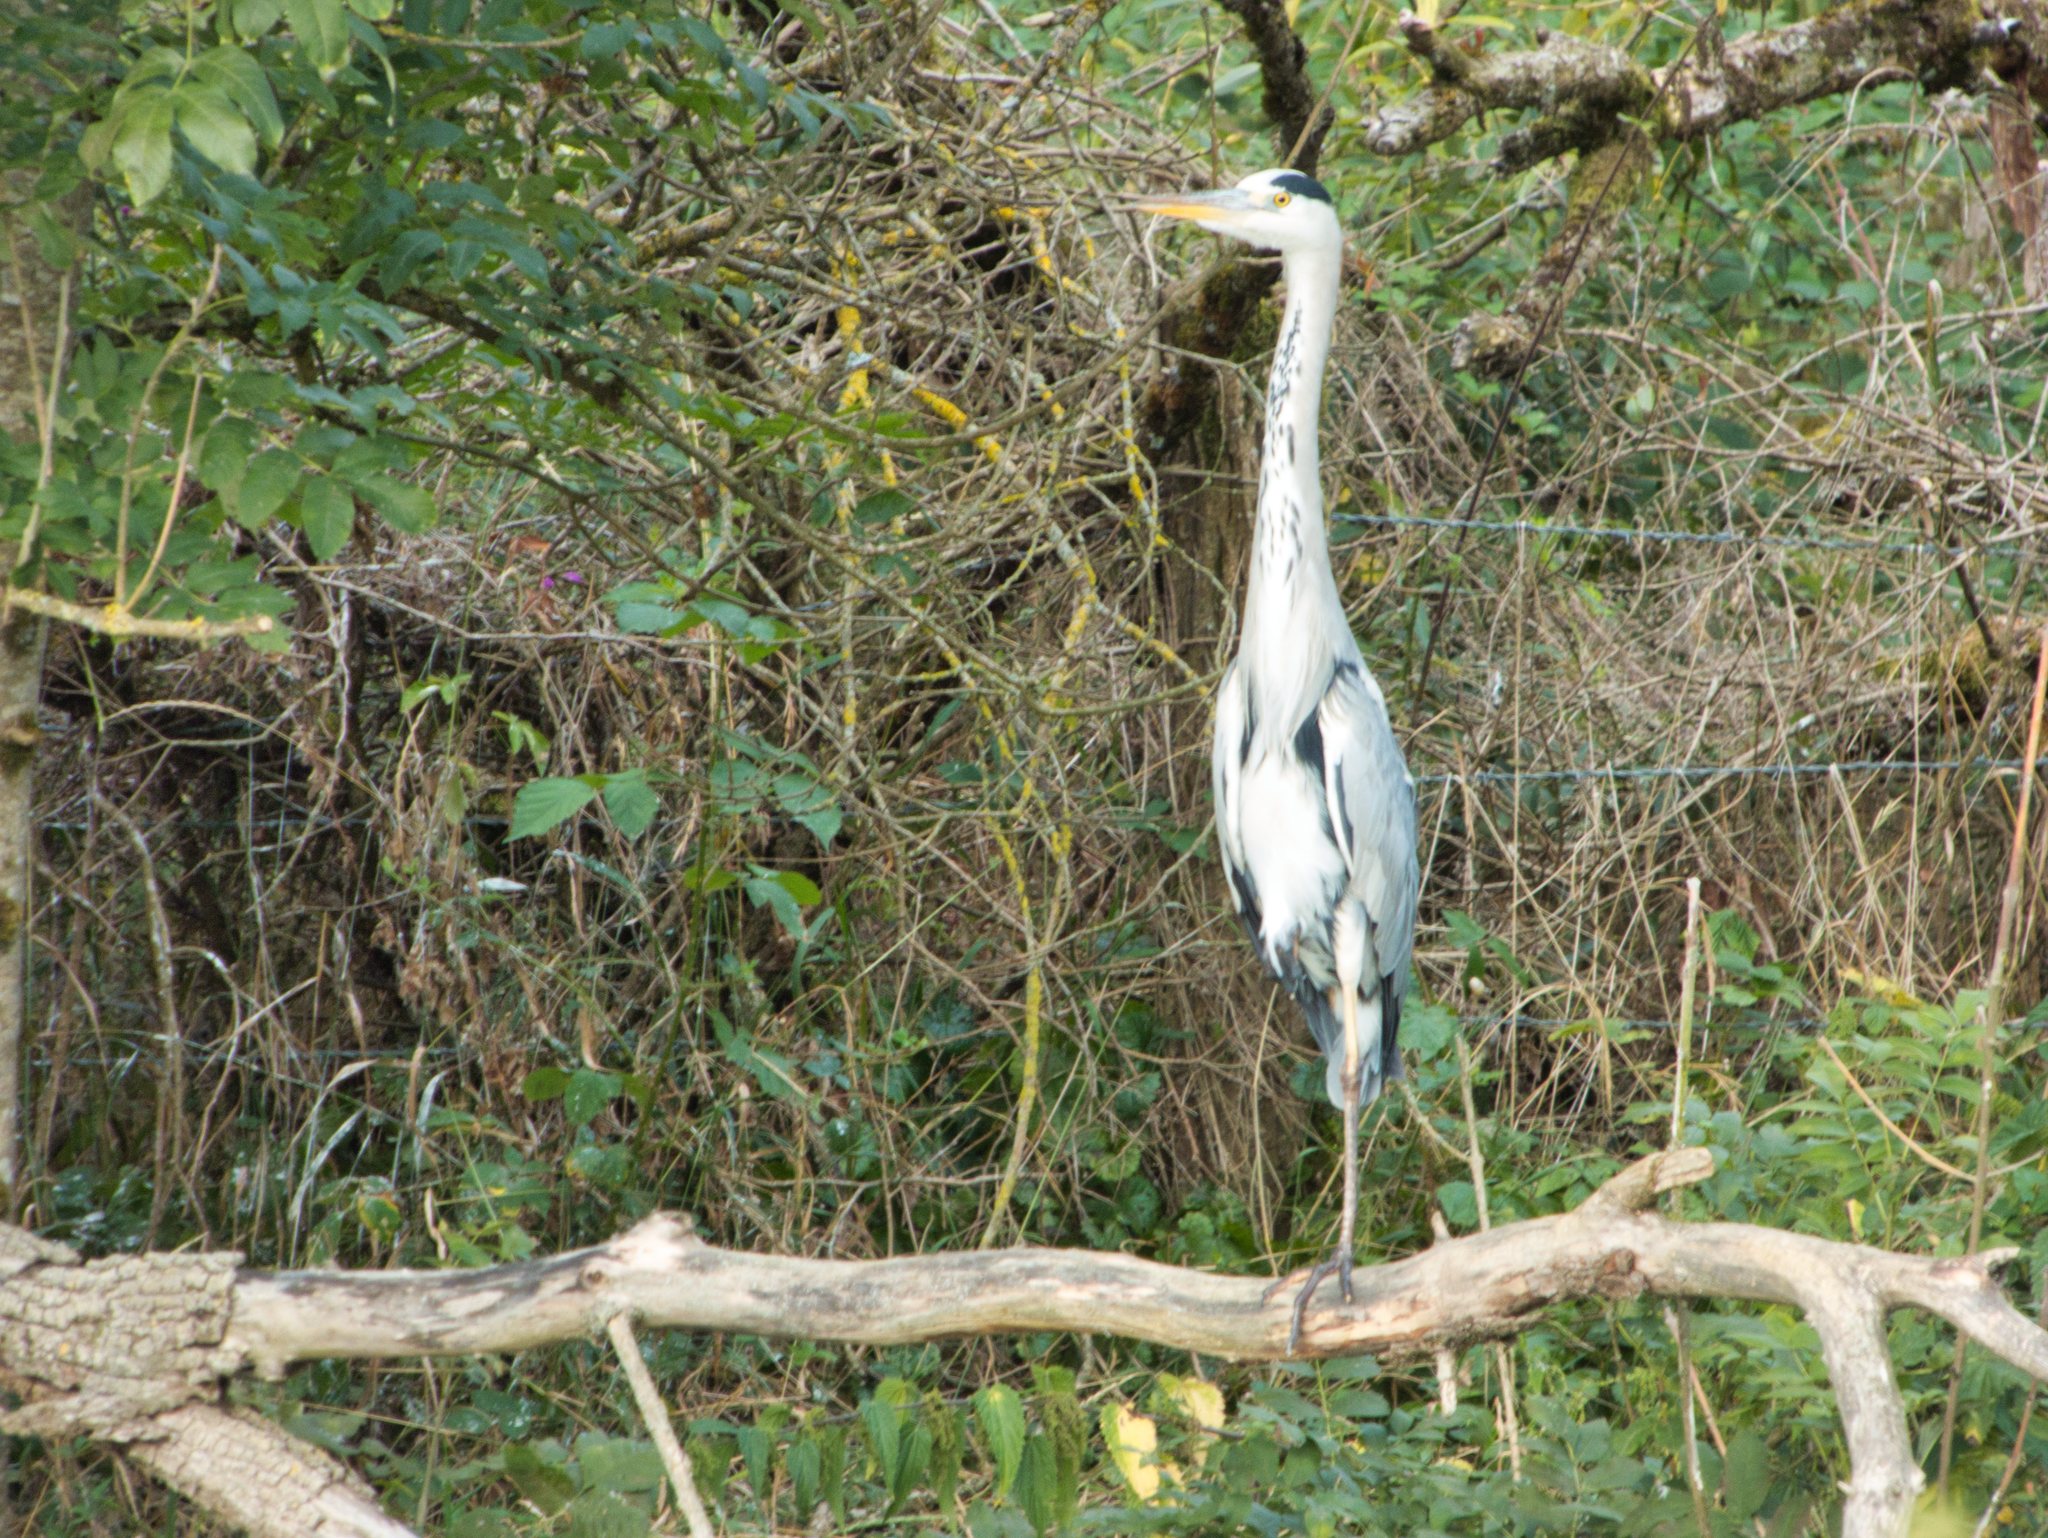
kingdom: Animalia
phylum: Chordata
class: Aves
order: Pelecaniformes
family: Ardeidae
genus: Ardea
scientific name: Ardea cinerea
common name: Grey heron
